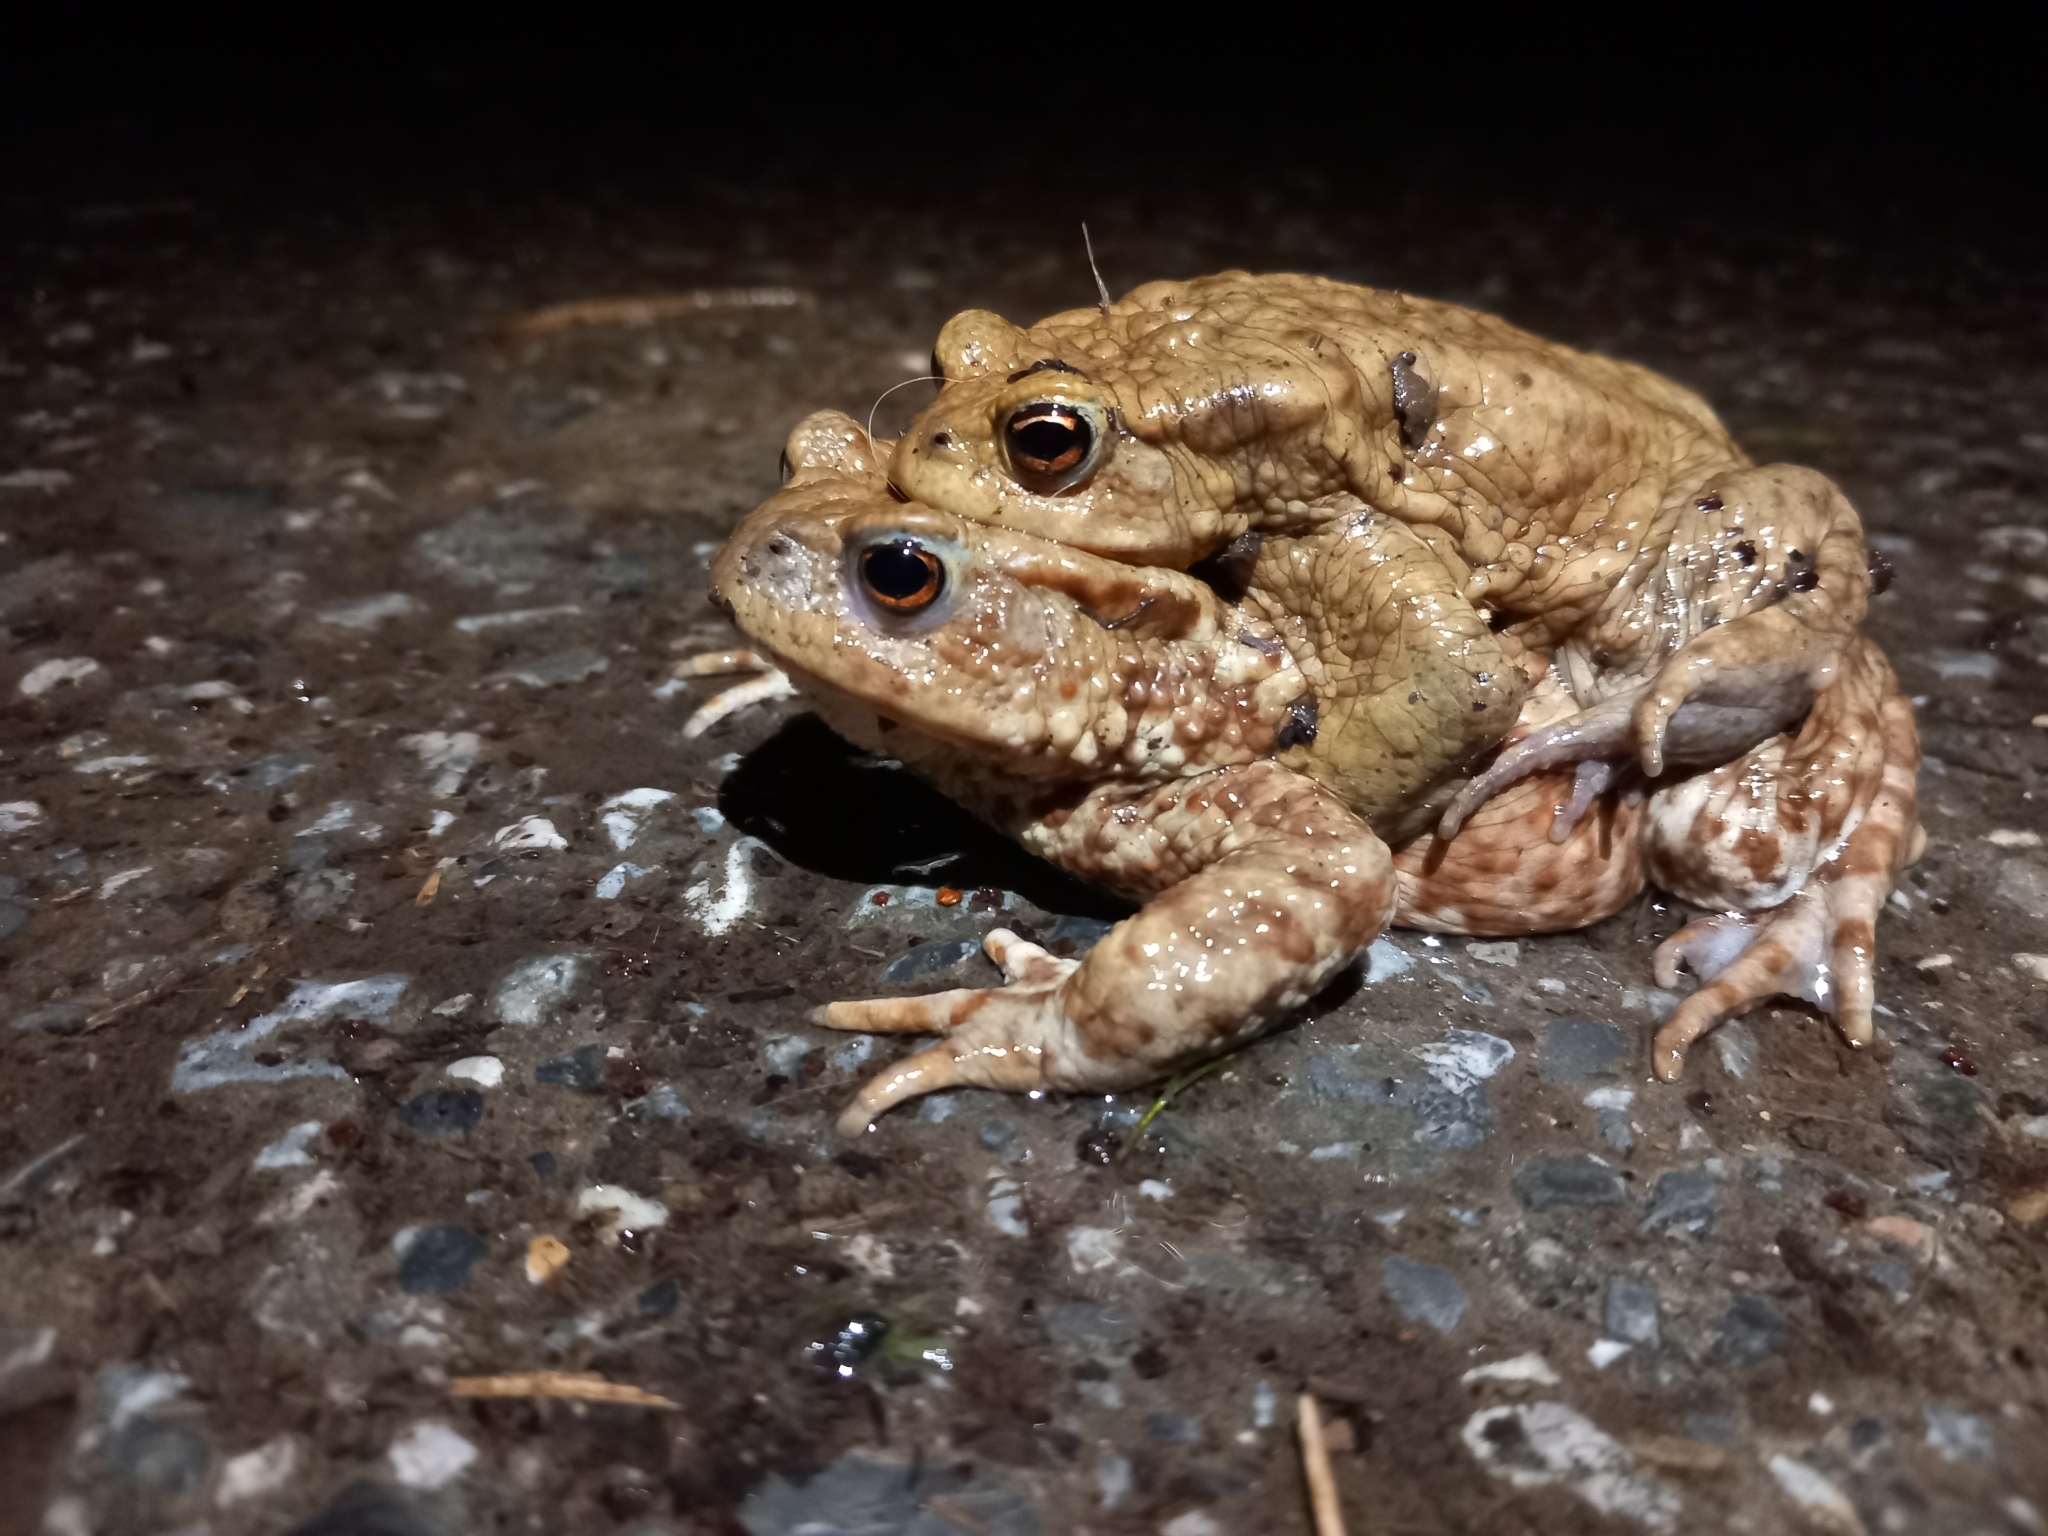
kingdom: Animalia
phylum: Chordata
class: Amphibia
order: Anura
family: Bufonidae
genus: Bufo
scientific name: Bufo bufo
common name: Common toad
